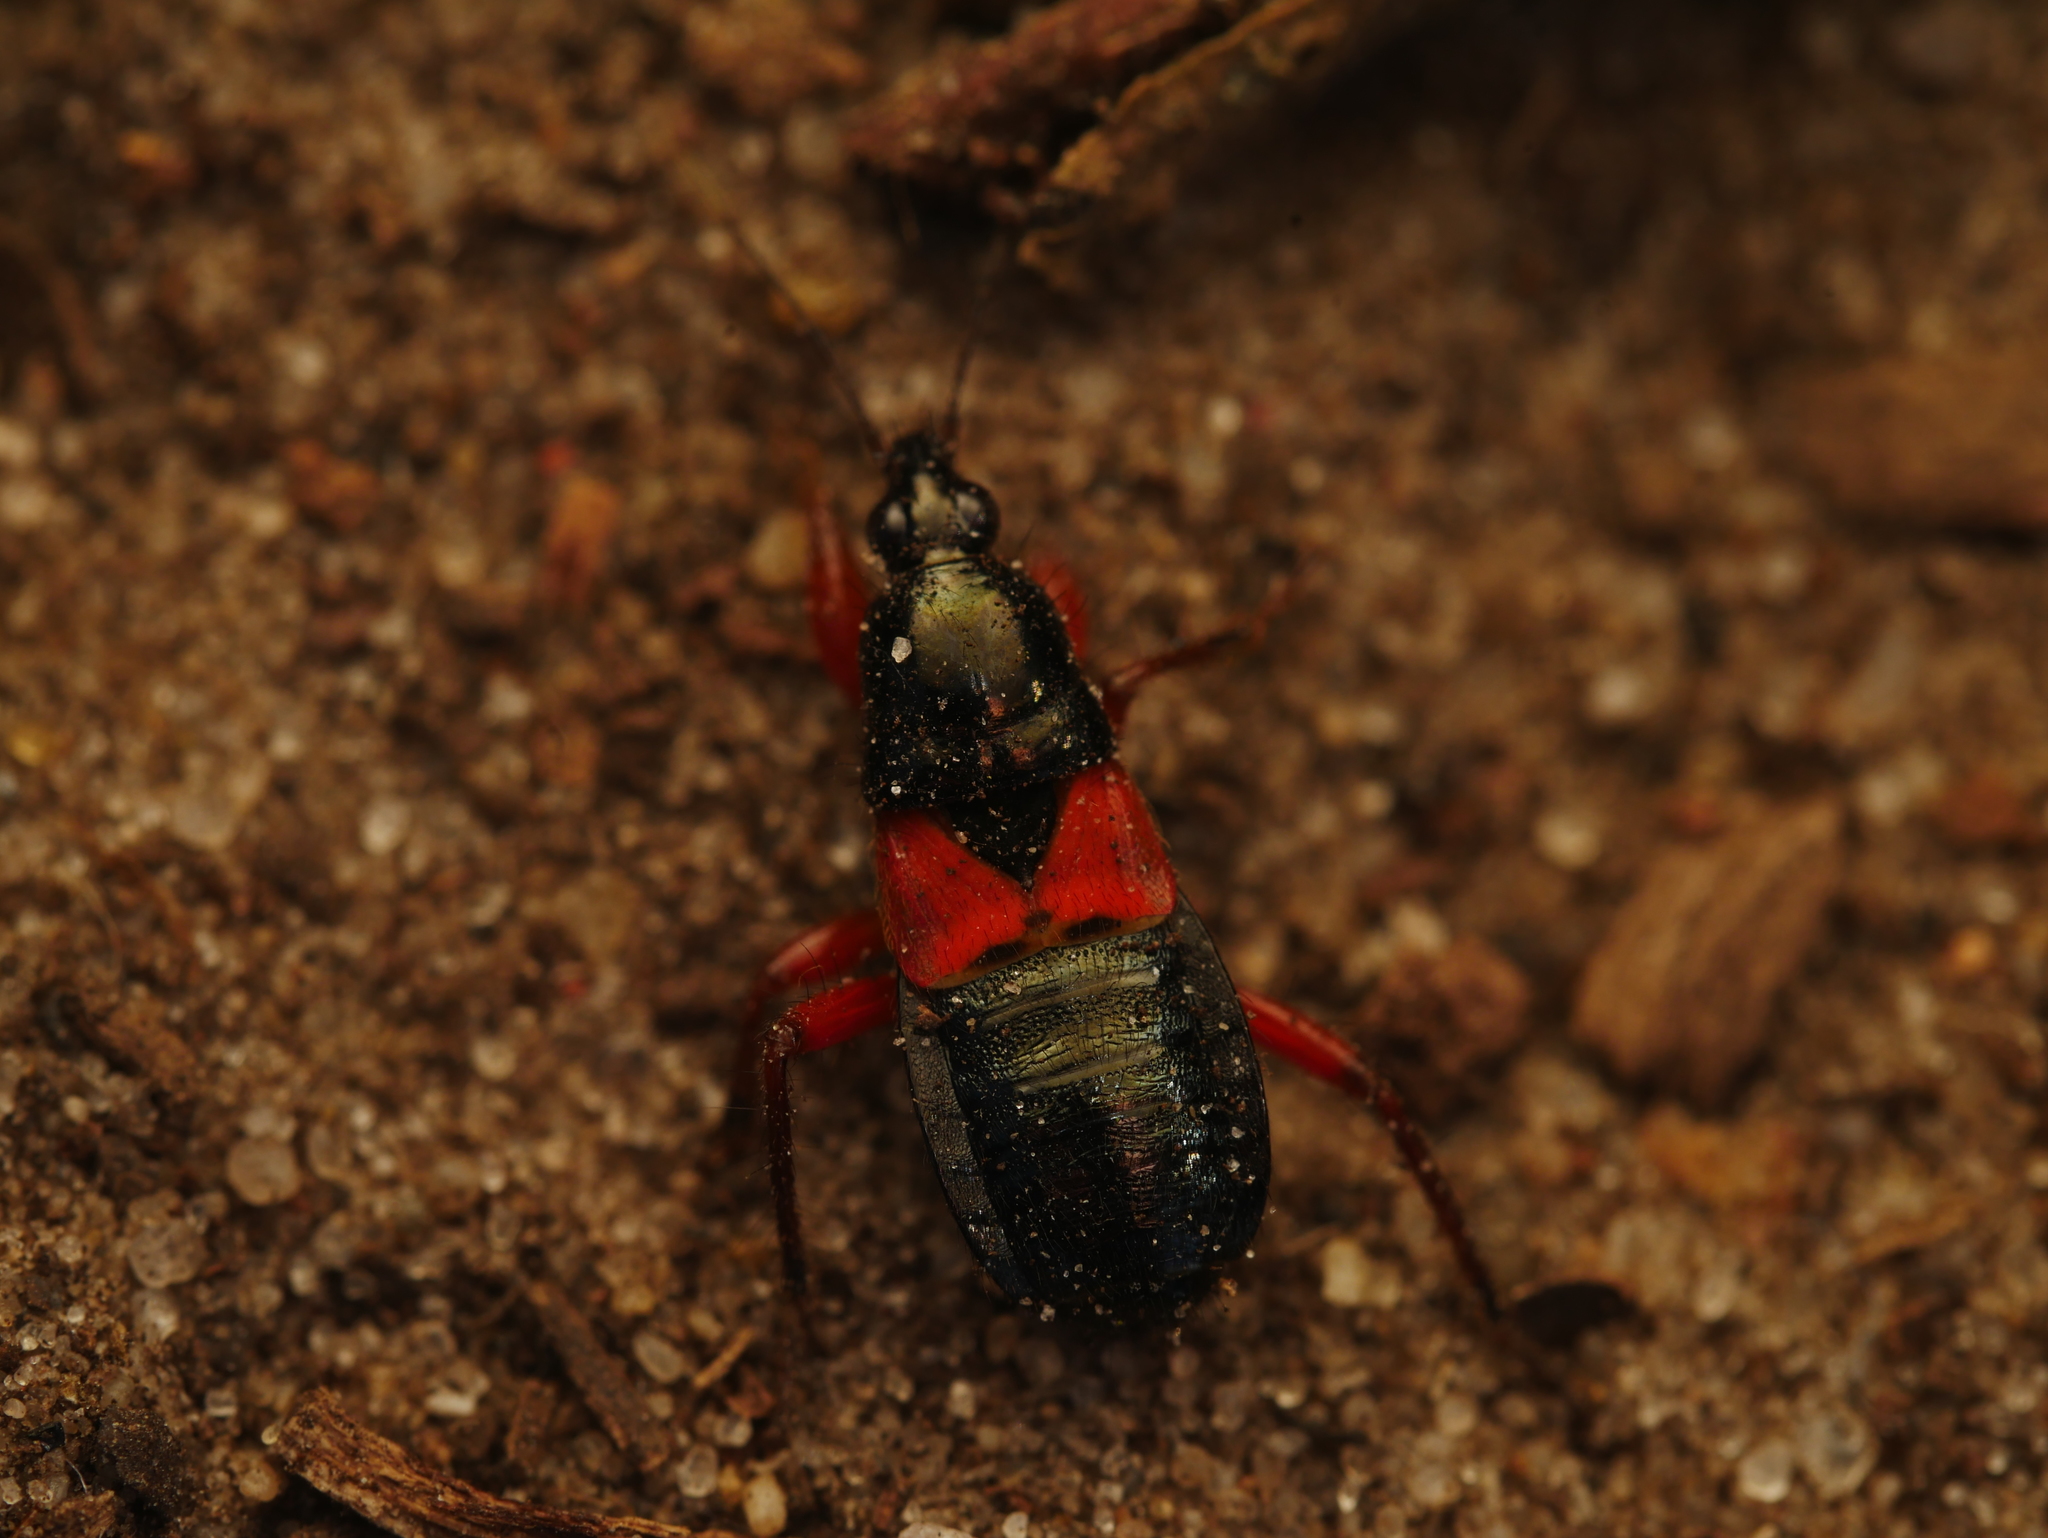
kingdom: Animalia
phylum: Arthropoda
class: Insecta
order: Hemiptera
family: Nabidae
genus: Prostemma
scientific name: Prostemma guttula
